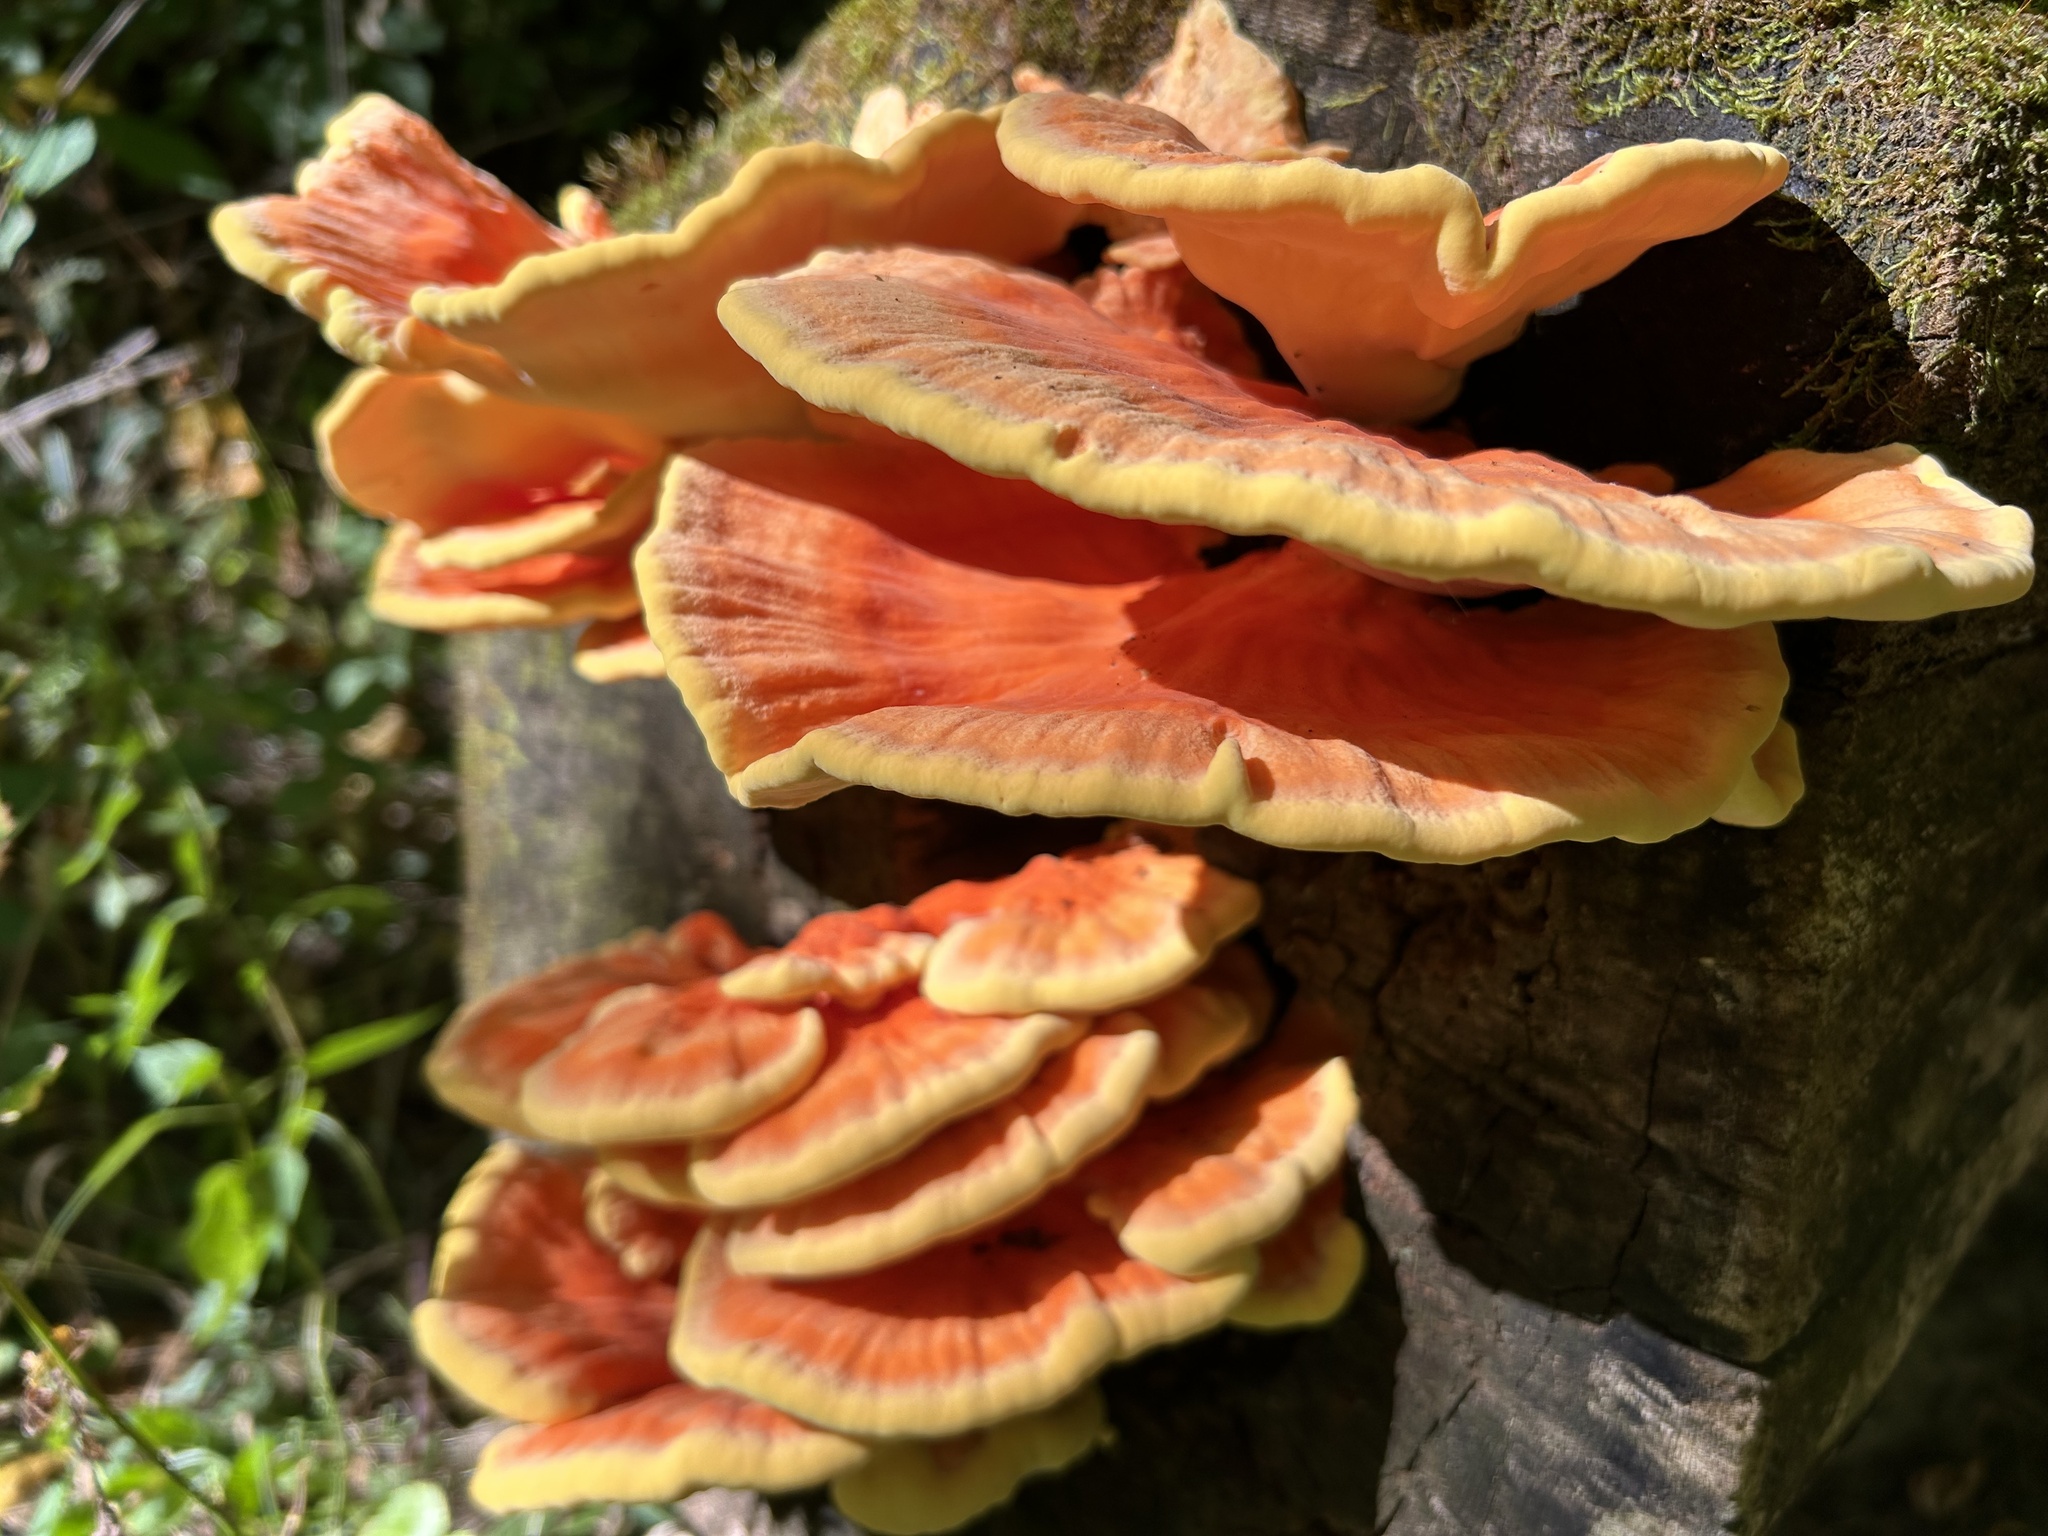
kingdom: Fungi
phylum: Basidiomycota
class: Agaricomycetes
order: Polyporales
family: Laetiporaceae
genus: Laetiporus
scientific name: Laetiporus sulphureus
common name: Chicken of the woods
